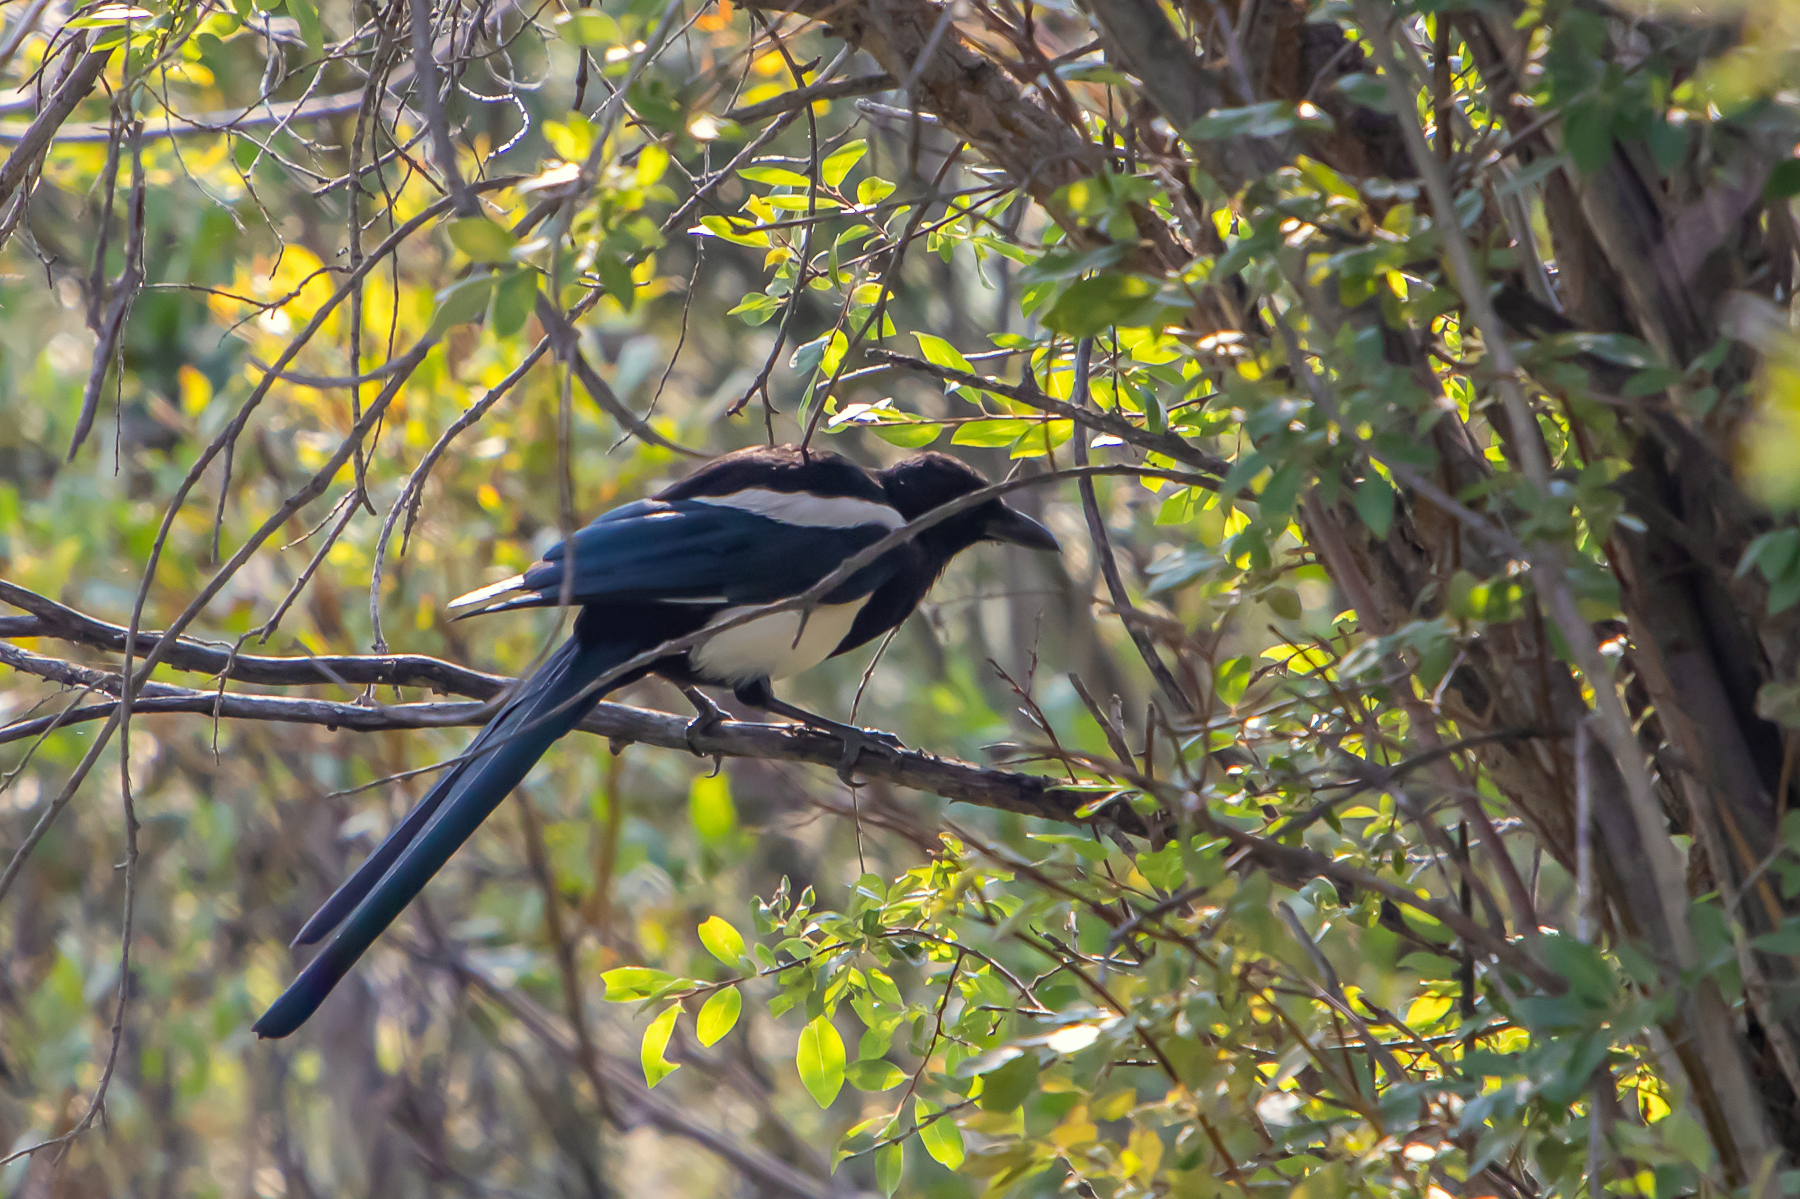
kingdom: Animalia
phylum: Chordata
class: Aves
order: Passeriformes
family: Corvidae
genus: Pica
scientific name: Pica hudsonia
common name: Black-billed magpie
